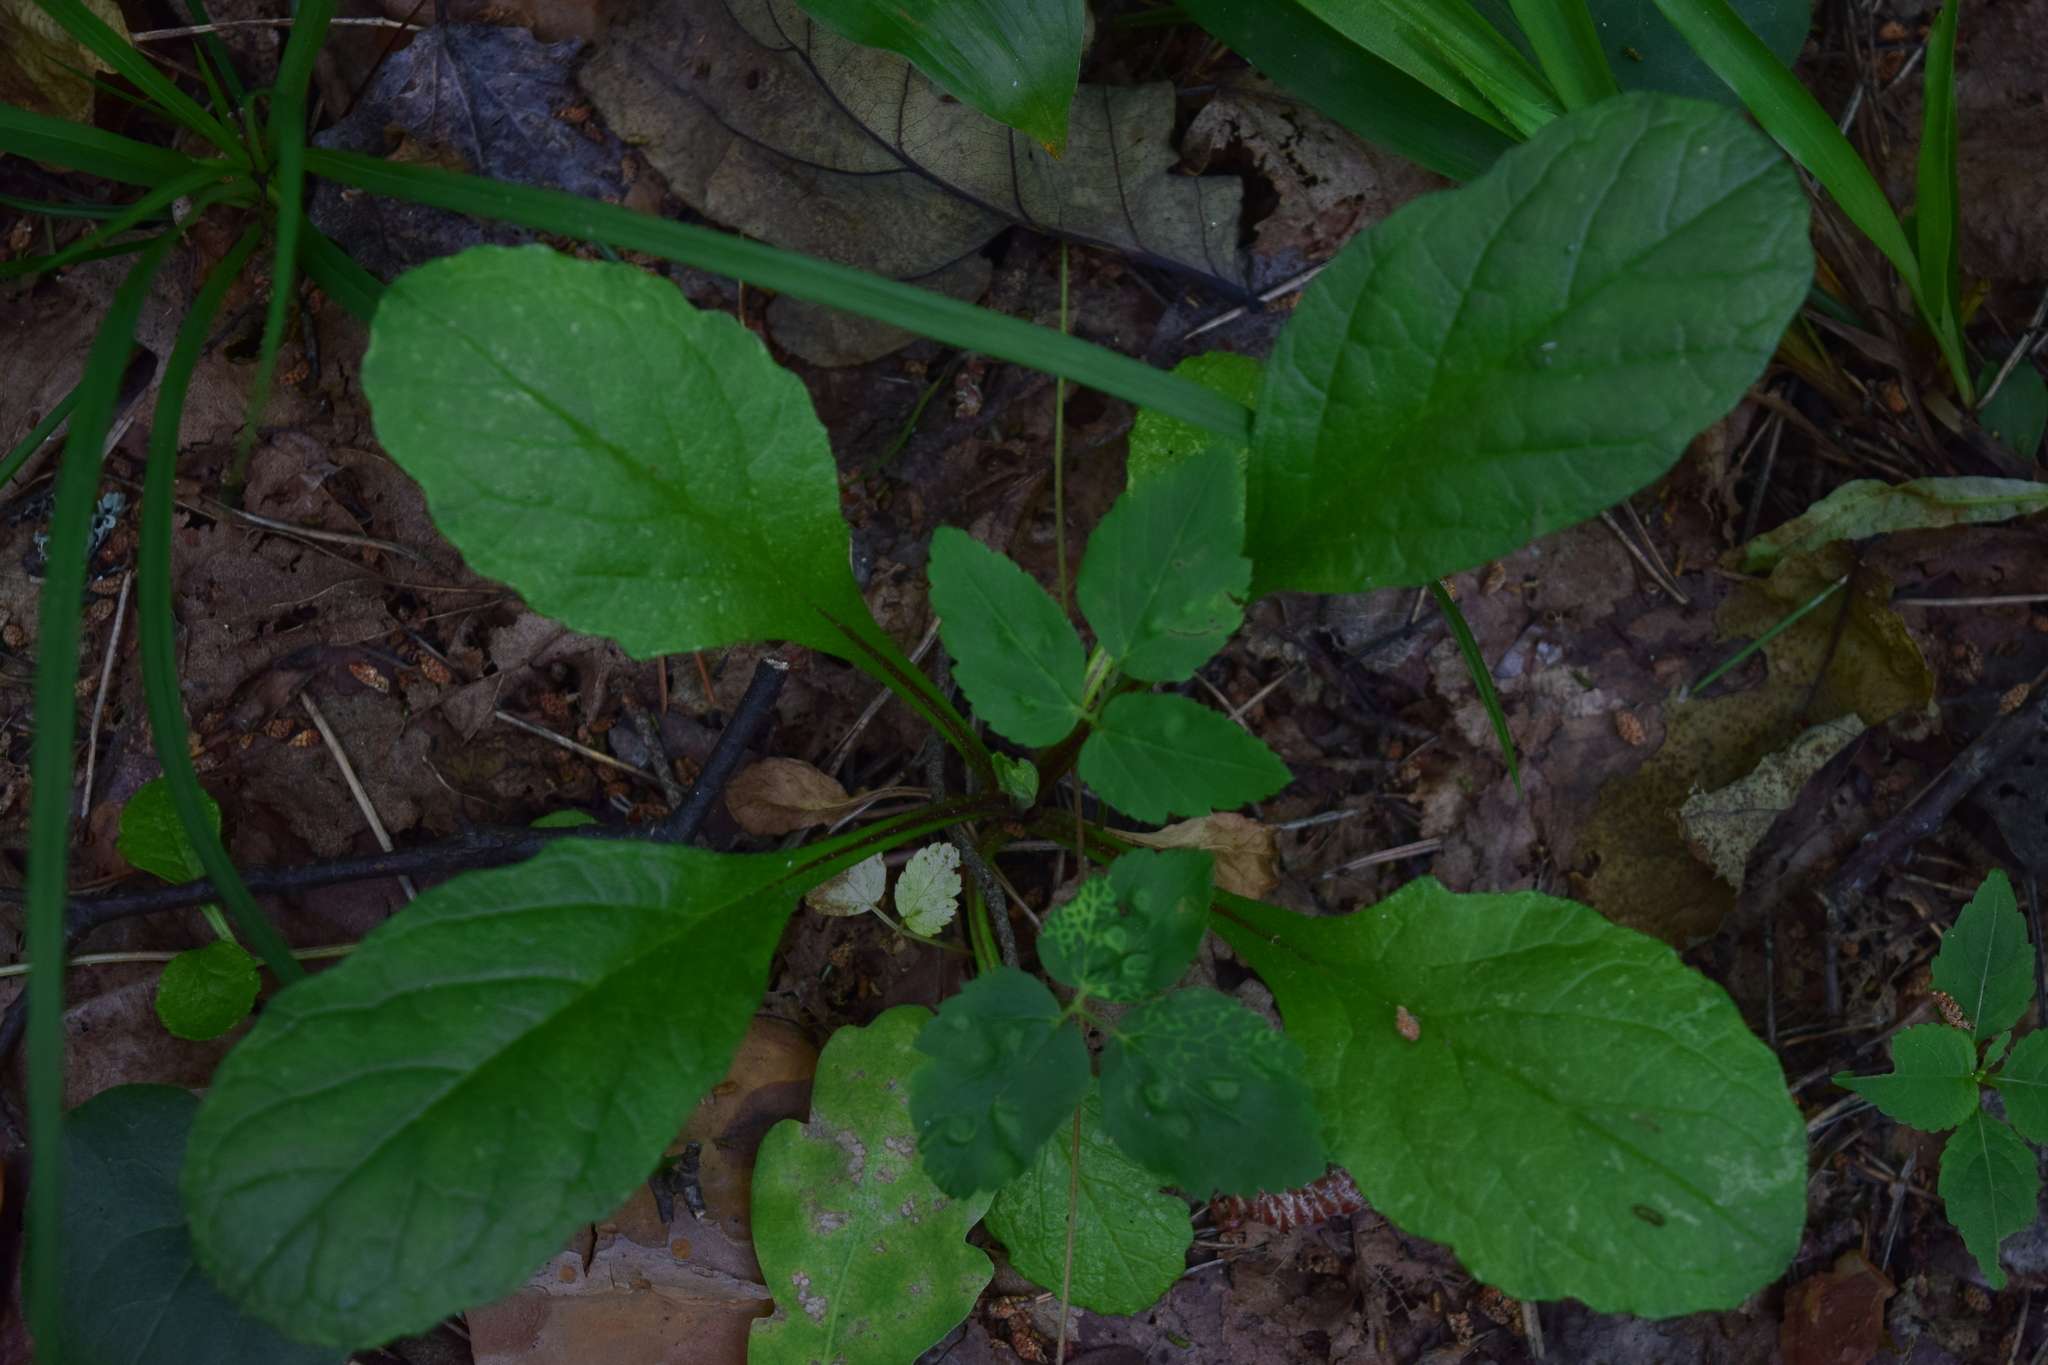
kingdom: Plantae
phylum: Tracheophyta
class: Magnoliopsida
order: Lamiales
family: Lamiaceae
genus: Ajuga
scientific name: Ajuga reptans
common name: Bugle
